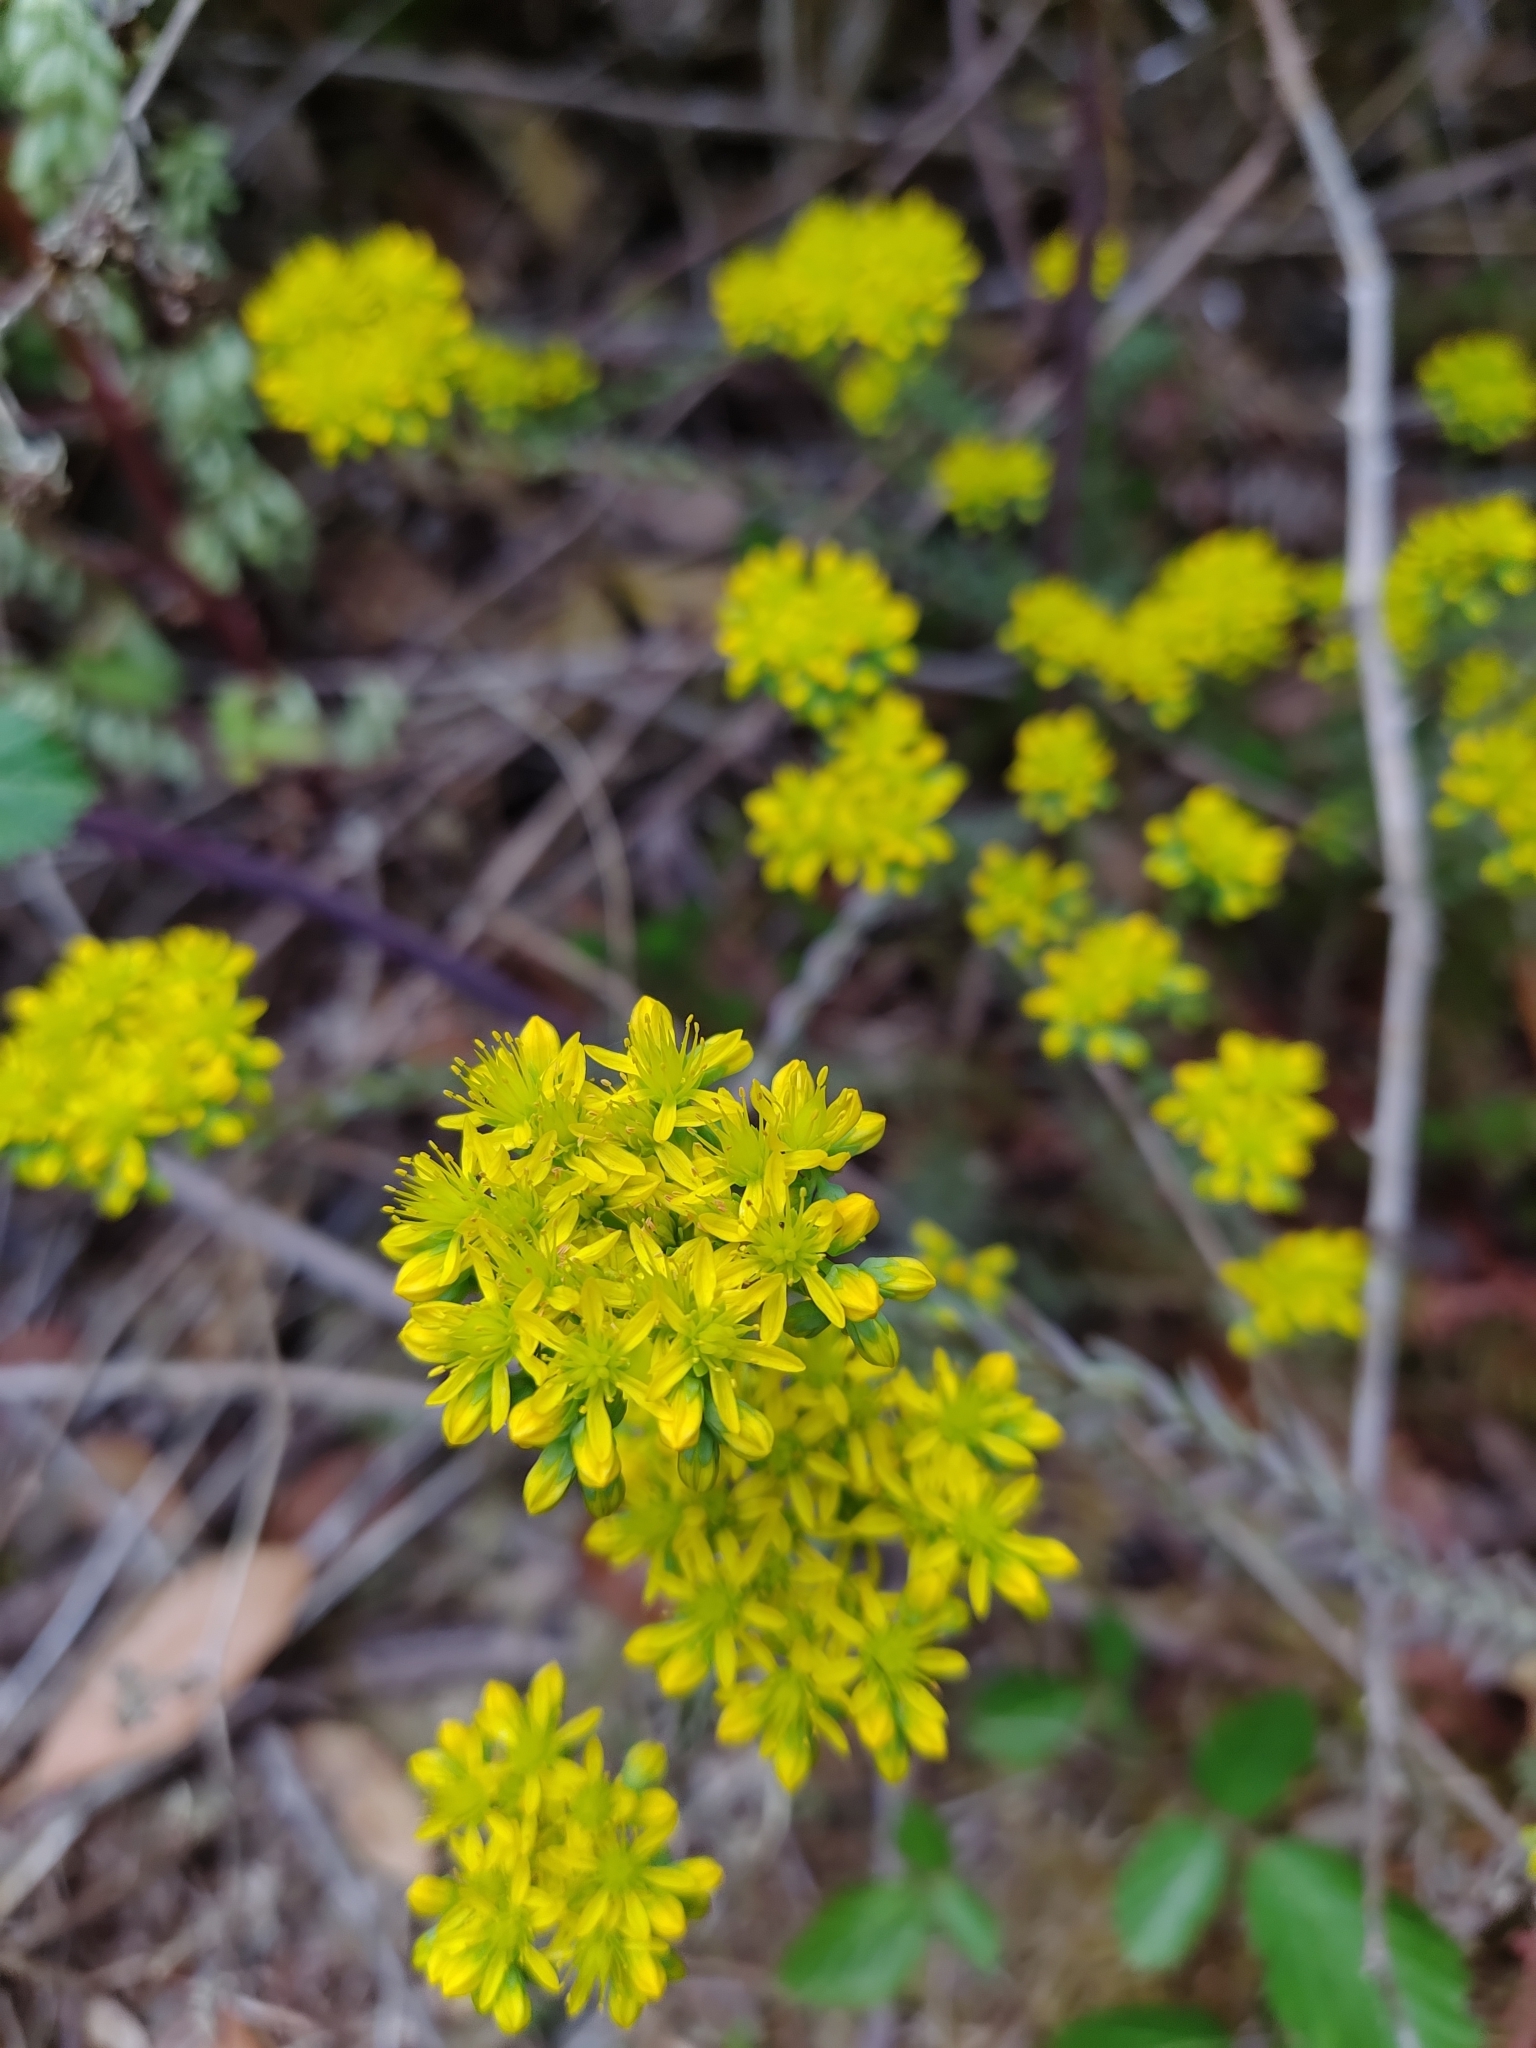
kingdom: Plantae
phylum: Tracheophyta
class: Magnoliopsida
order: Saxifragales
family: Crassulaceae
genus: Petrosedum
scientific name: Petrosedum forsterianum
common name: Forster's stonecrop
